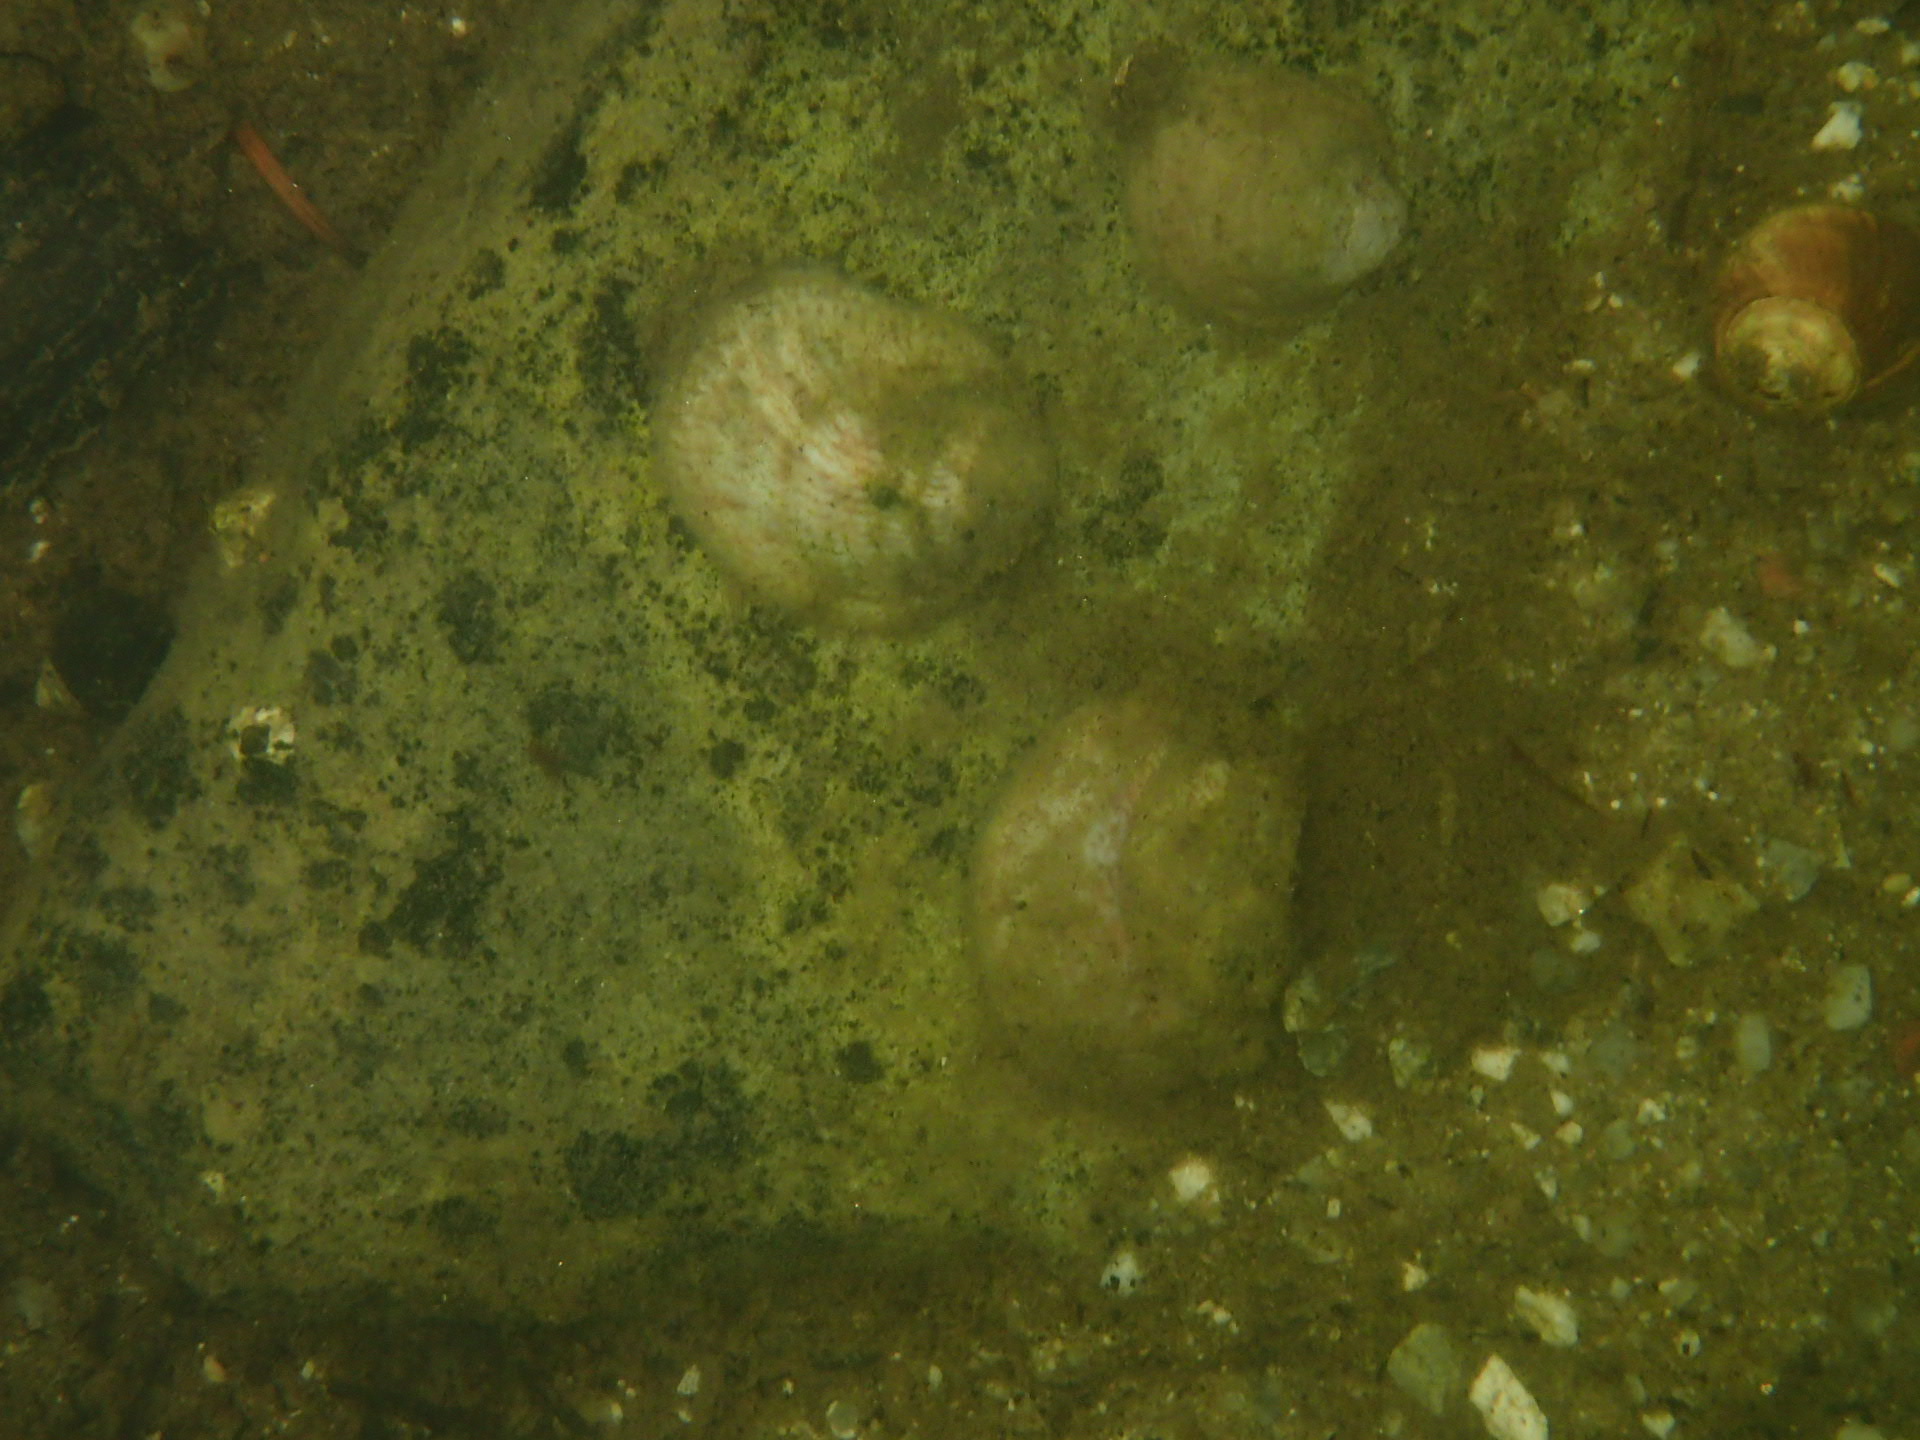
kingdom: Animalia
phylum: Mollusca
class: Gastropoda
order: Littorinimorpha
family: Calyptraeidae
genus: Crepidula
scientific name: Crepidula fornicata
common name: Slipper limpet
